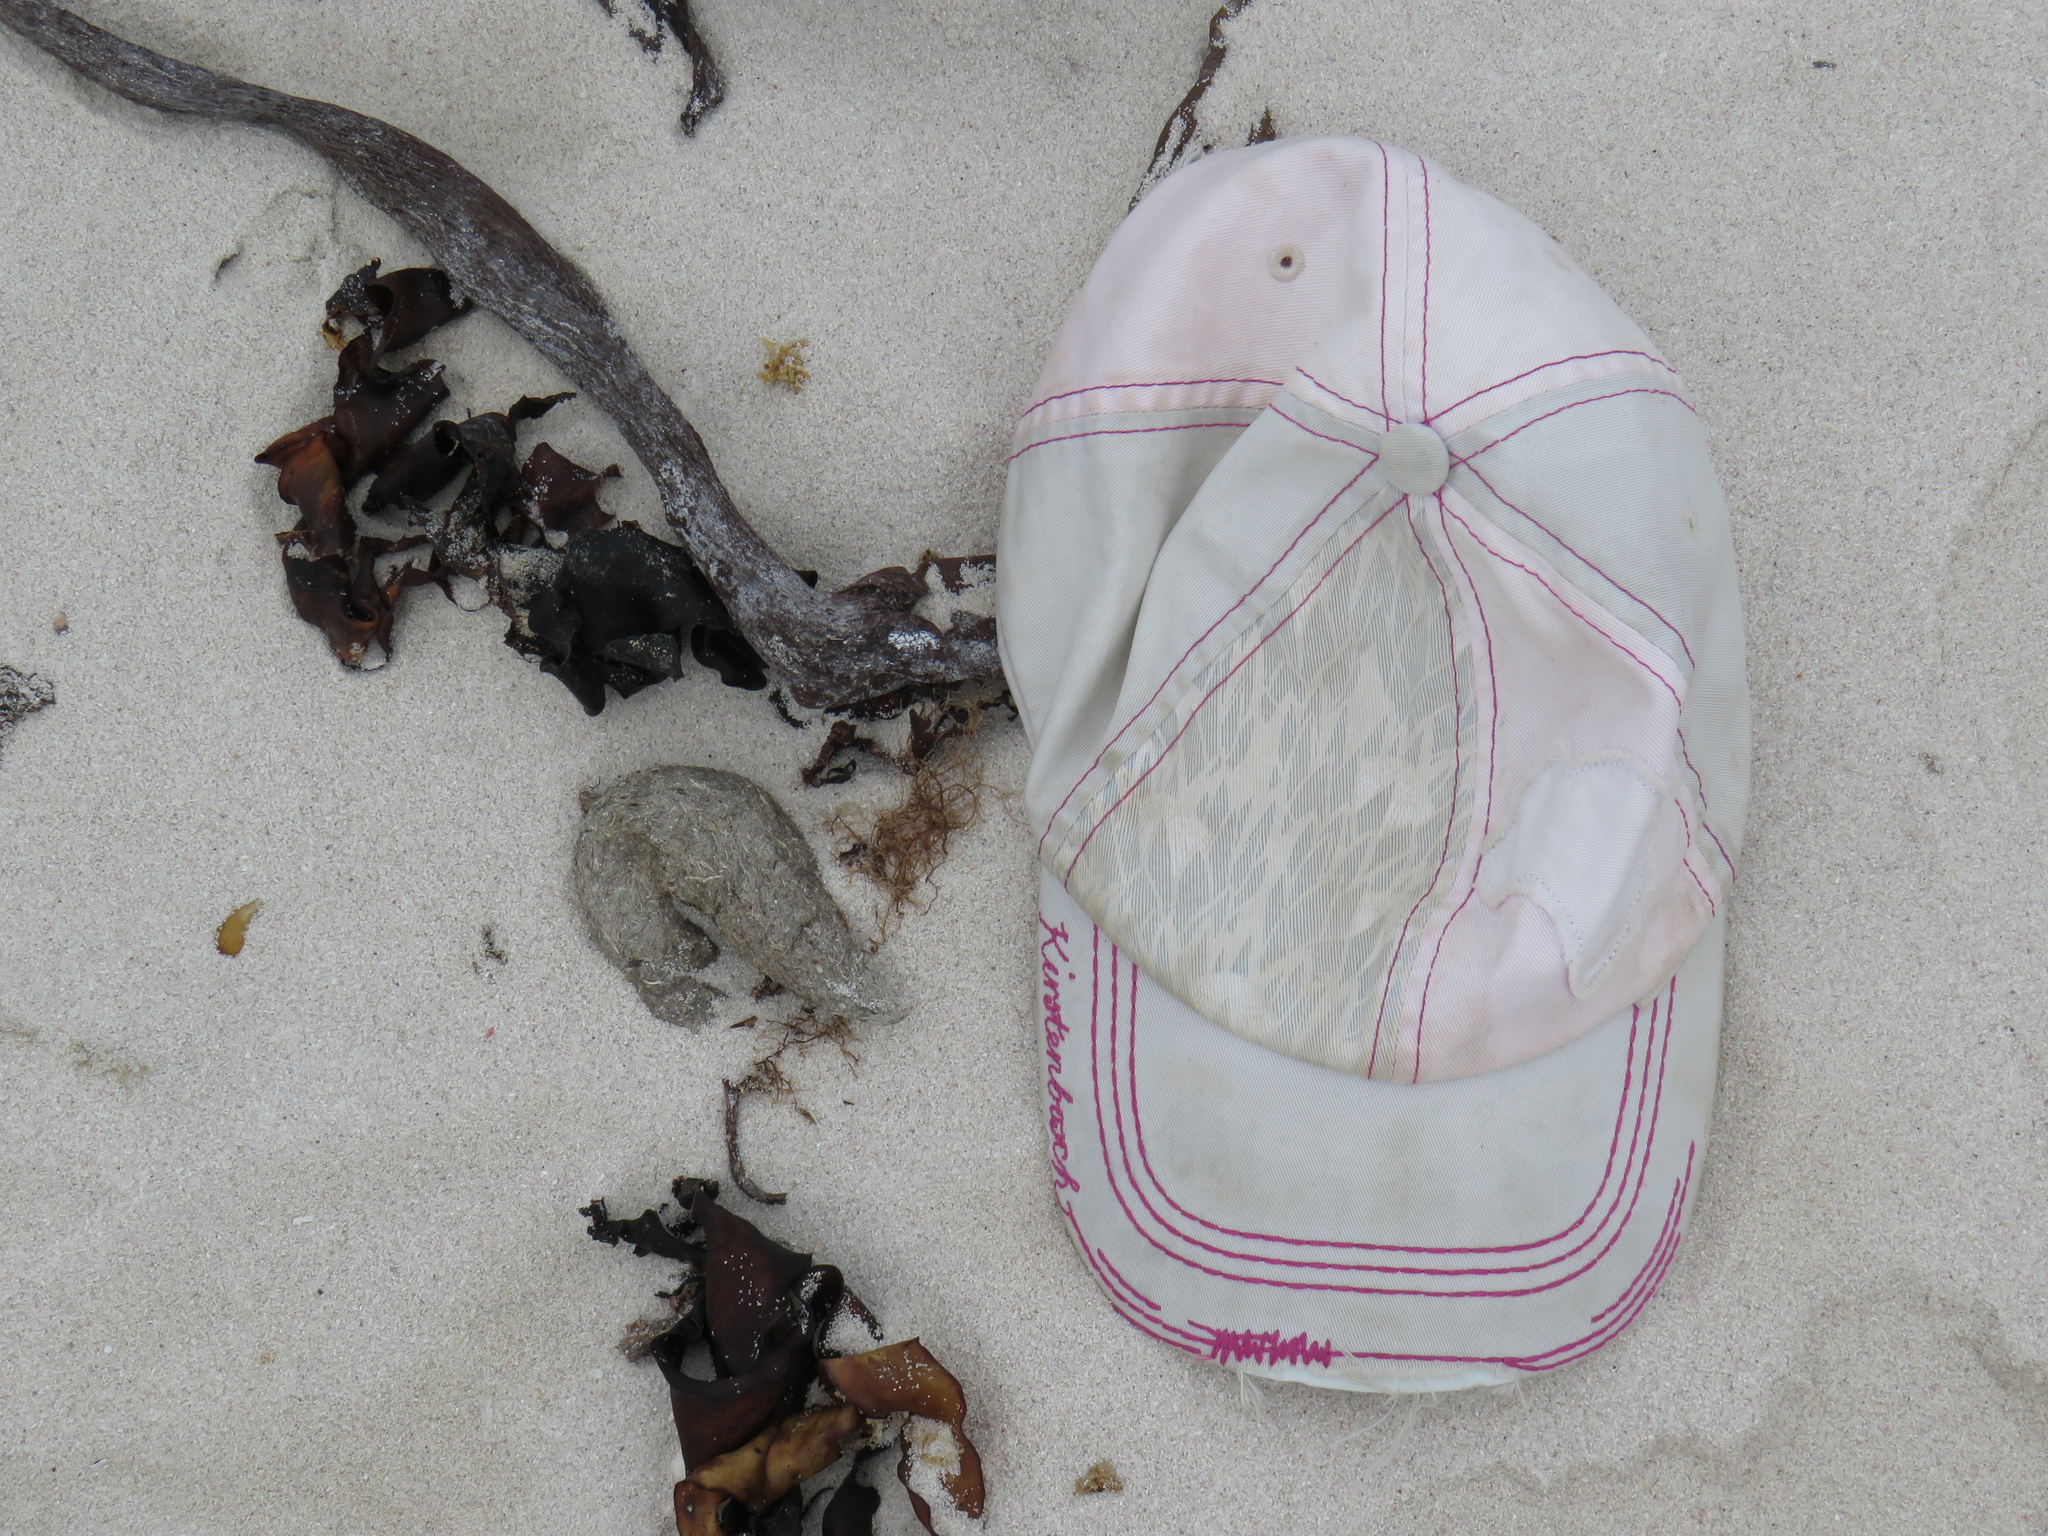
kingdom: Animalia
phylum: Chordata
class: Mammalia
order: Primates
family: Cercopithecidae
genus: Papio
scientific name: Papio ursinus
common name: Chacma baboon
